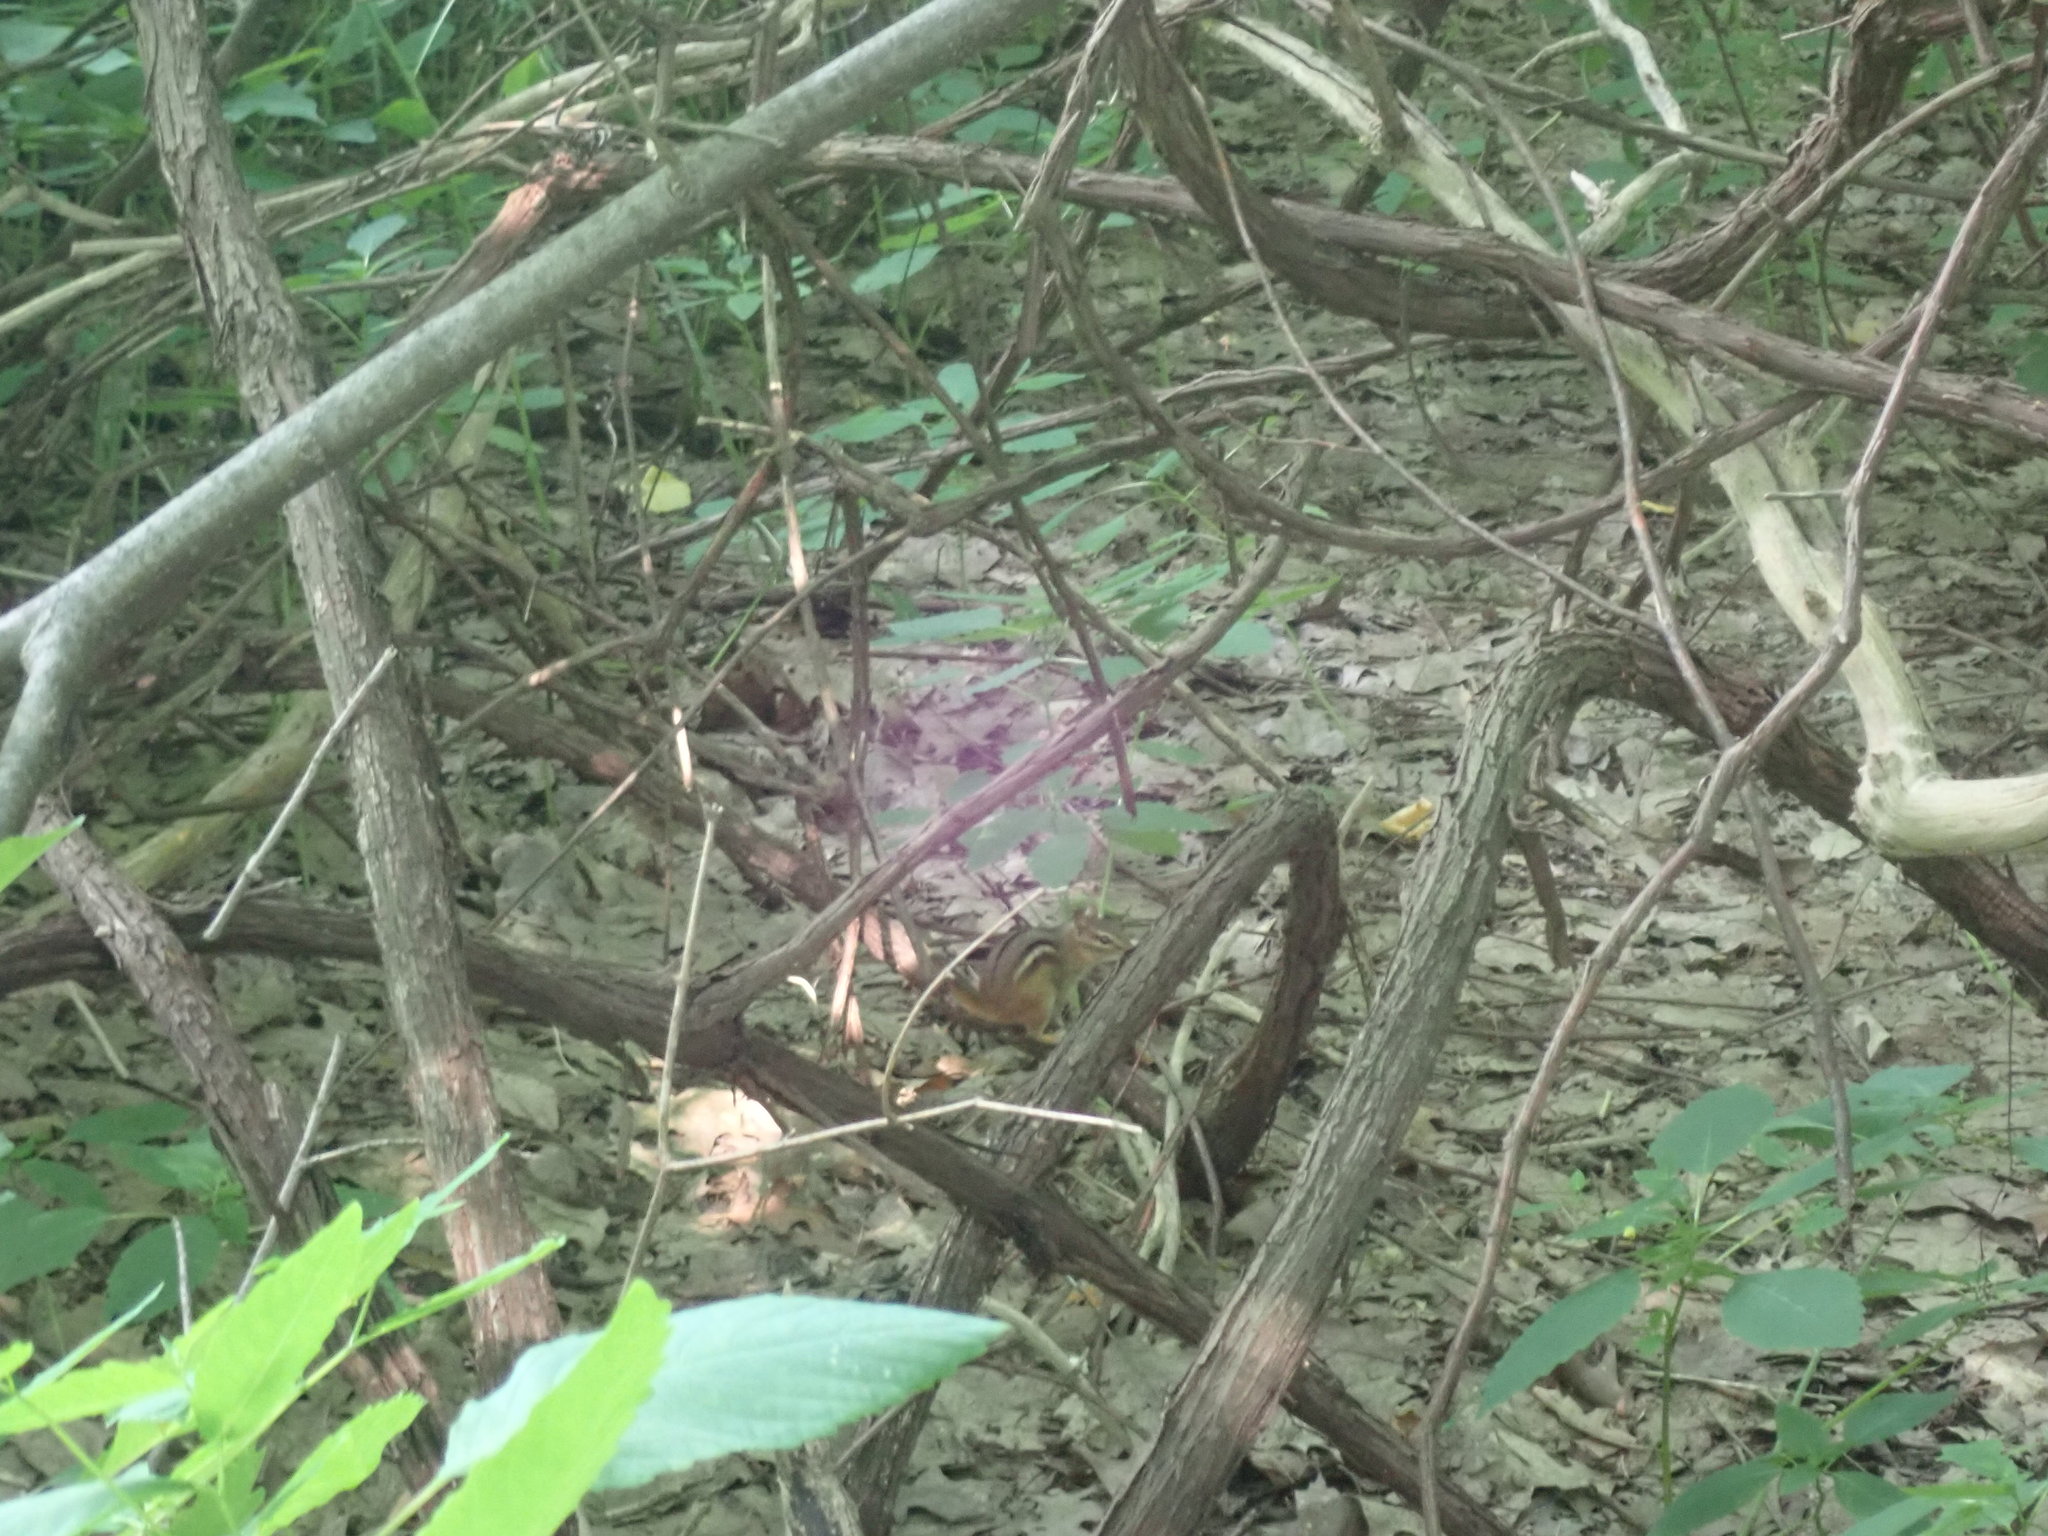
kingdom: Animalia
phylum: Chordata
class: Mammalia
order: Rodentia
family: Sciuridae
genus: Tamias
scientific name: Tamias striatus
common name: Eastern chipmunk
